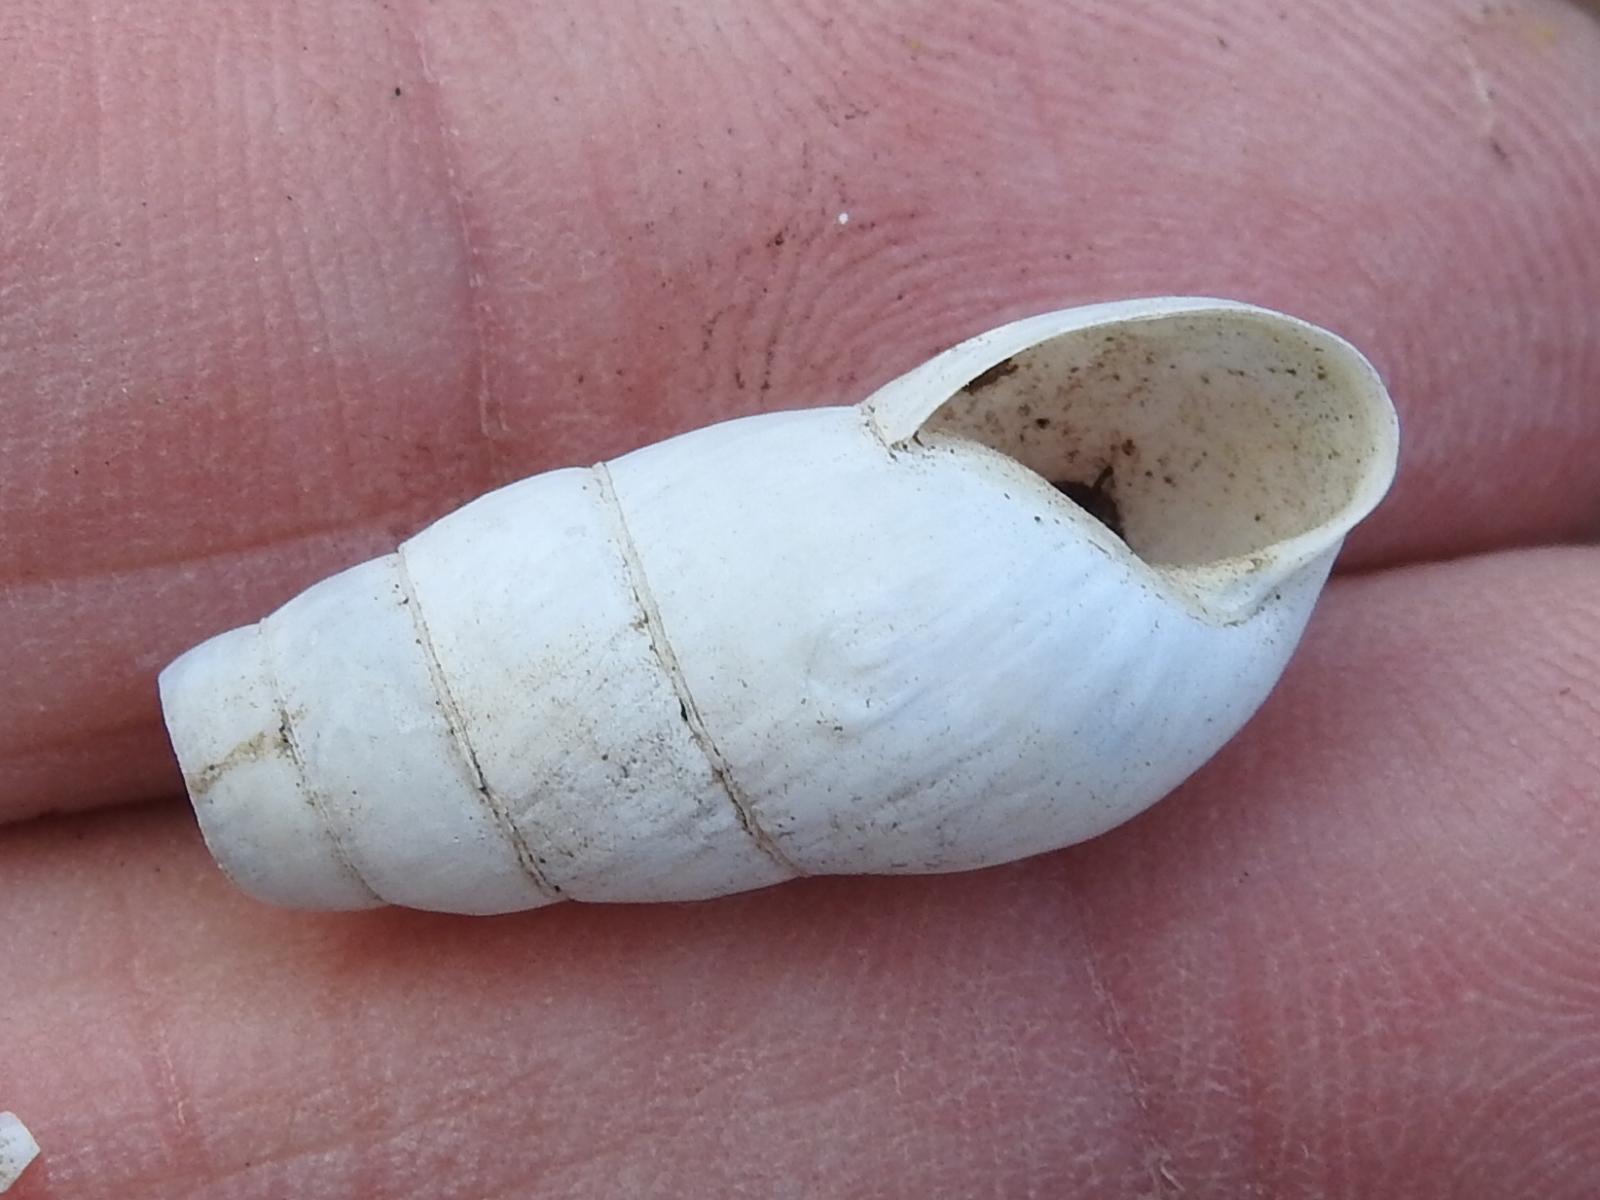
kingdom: Animalia
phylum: Mollusca
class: Gastropoda
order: Stylommatophora
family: Achatinidae
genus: Rumina
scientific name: Rumina decollata
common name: Decollate snail
